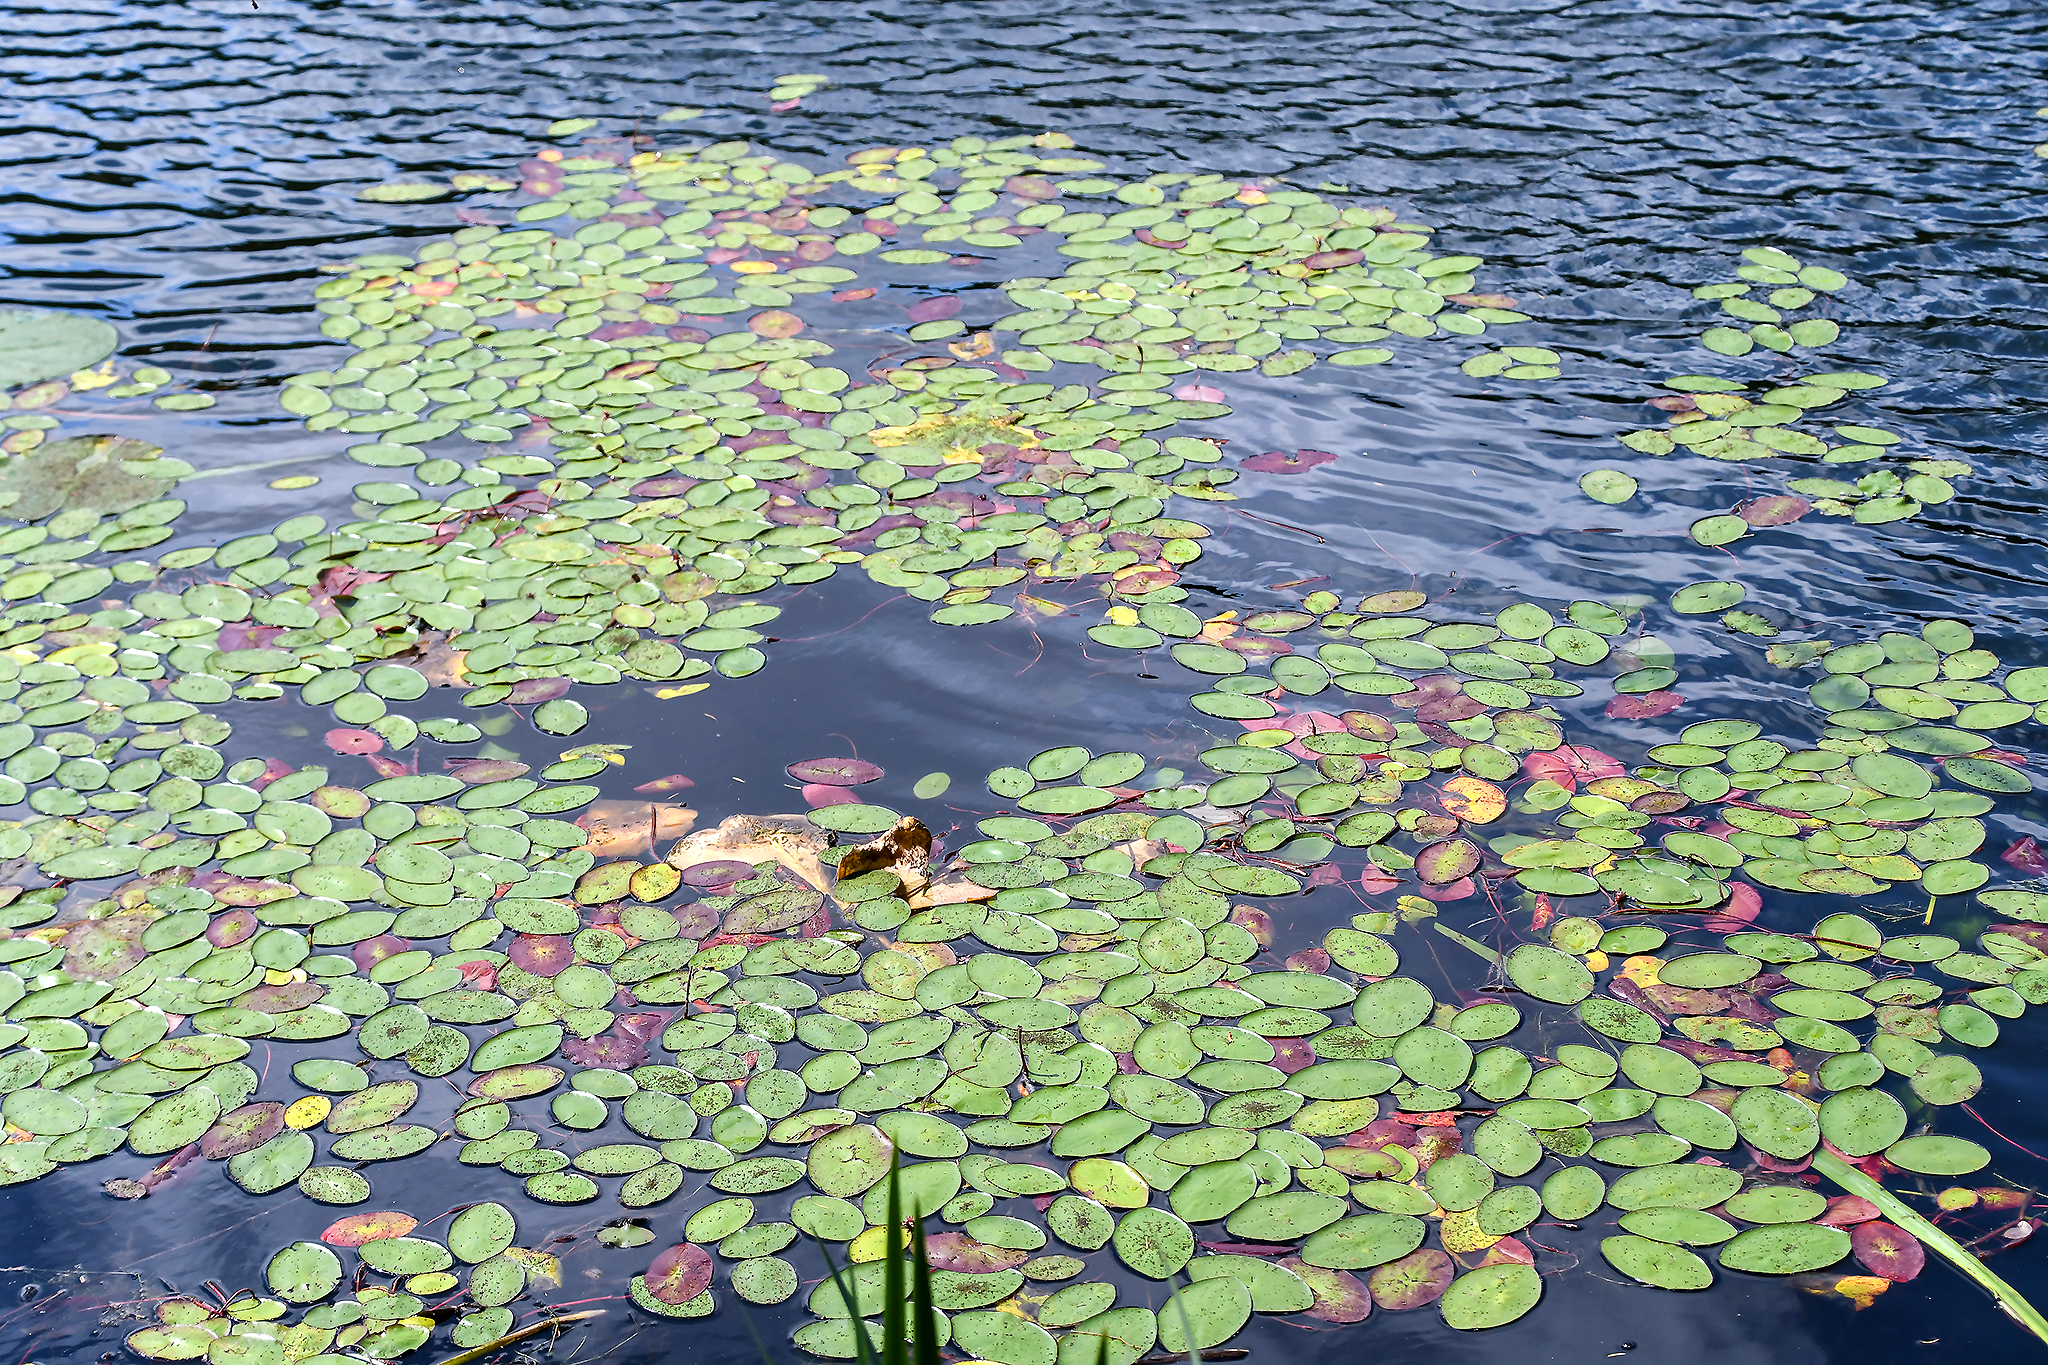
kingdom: Plantae
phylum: Tracheophyta
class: Magnoliopsida
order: Nymphaeales
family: Cabombaceae
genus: Brasenia
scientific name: Brasenia schreberi
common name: Water-shield
